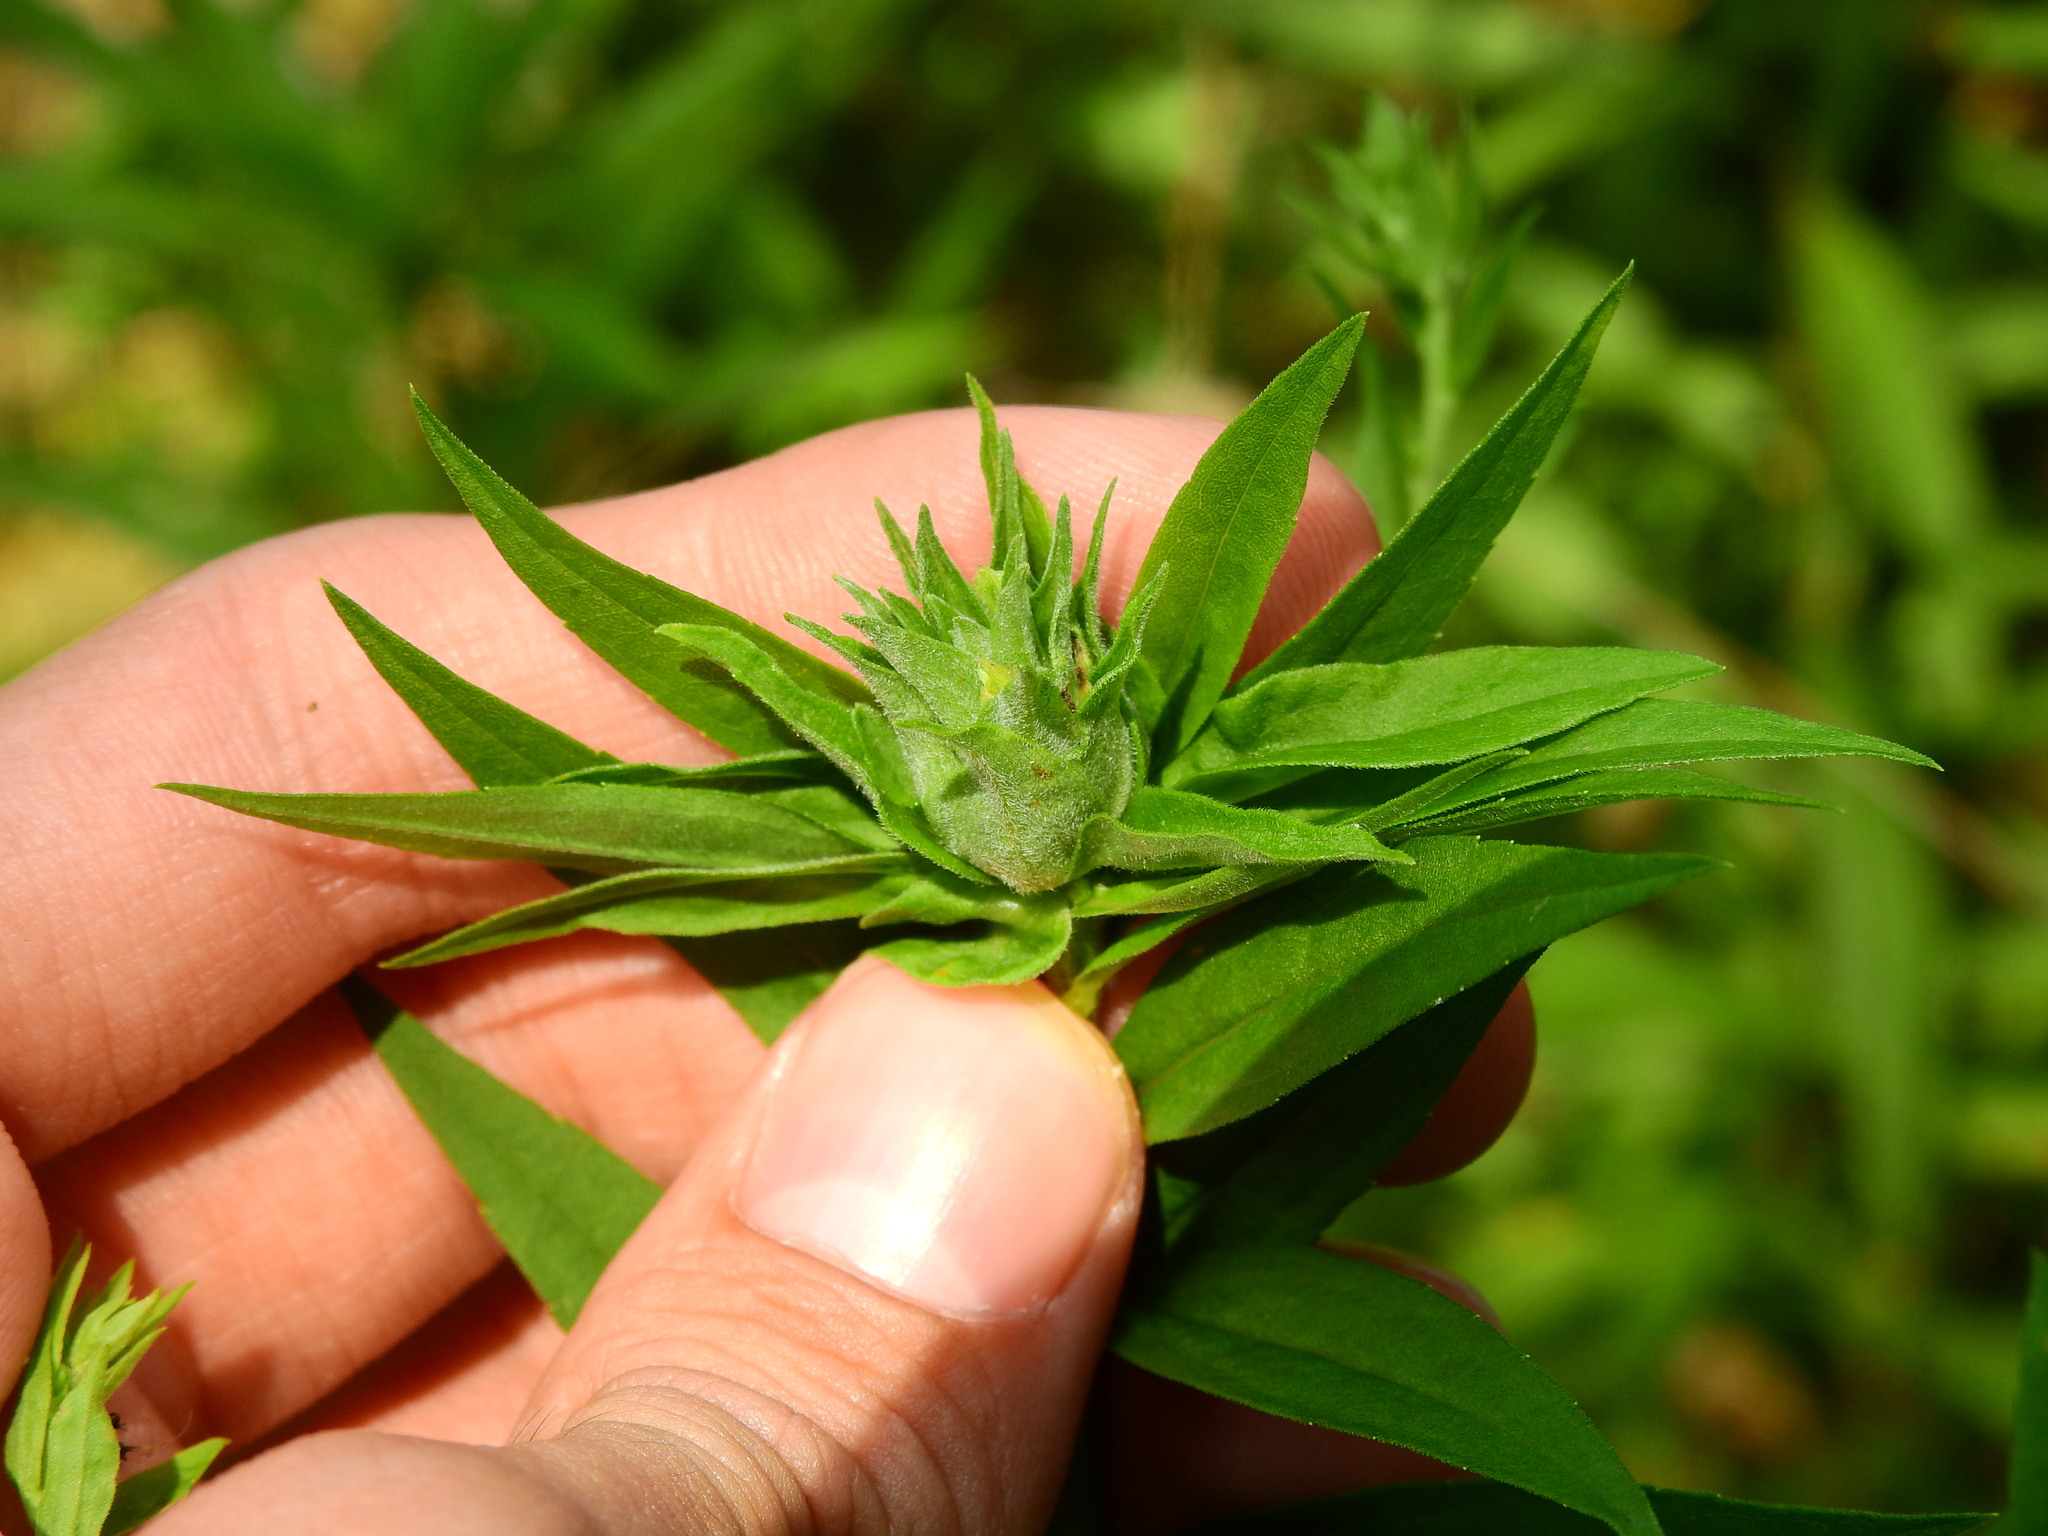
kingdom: Animalia
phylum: Arthropoda
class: Insecta
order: Diptera
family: Tephritidae
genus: Procecidochares
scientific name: Procecidochares atra
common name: Goldenrod brussels sprout gall fly
